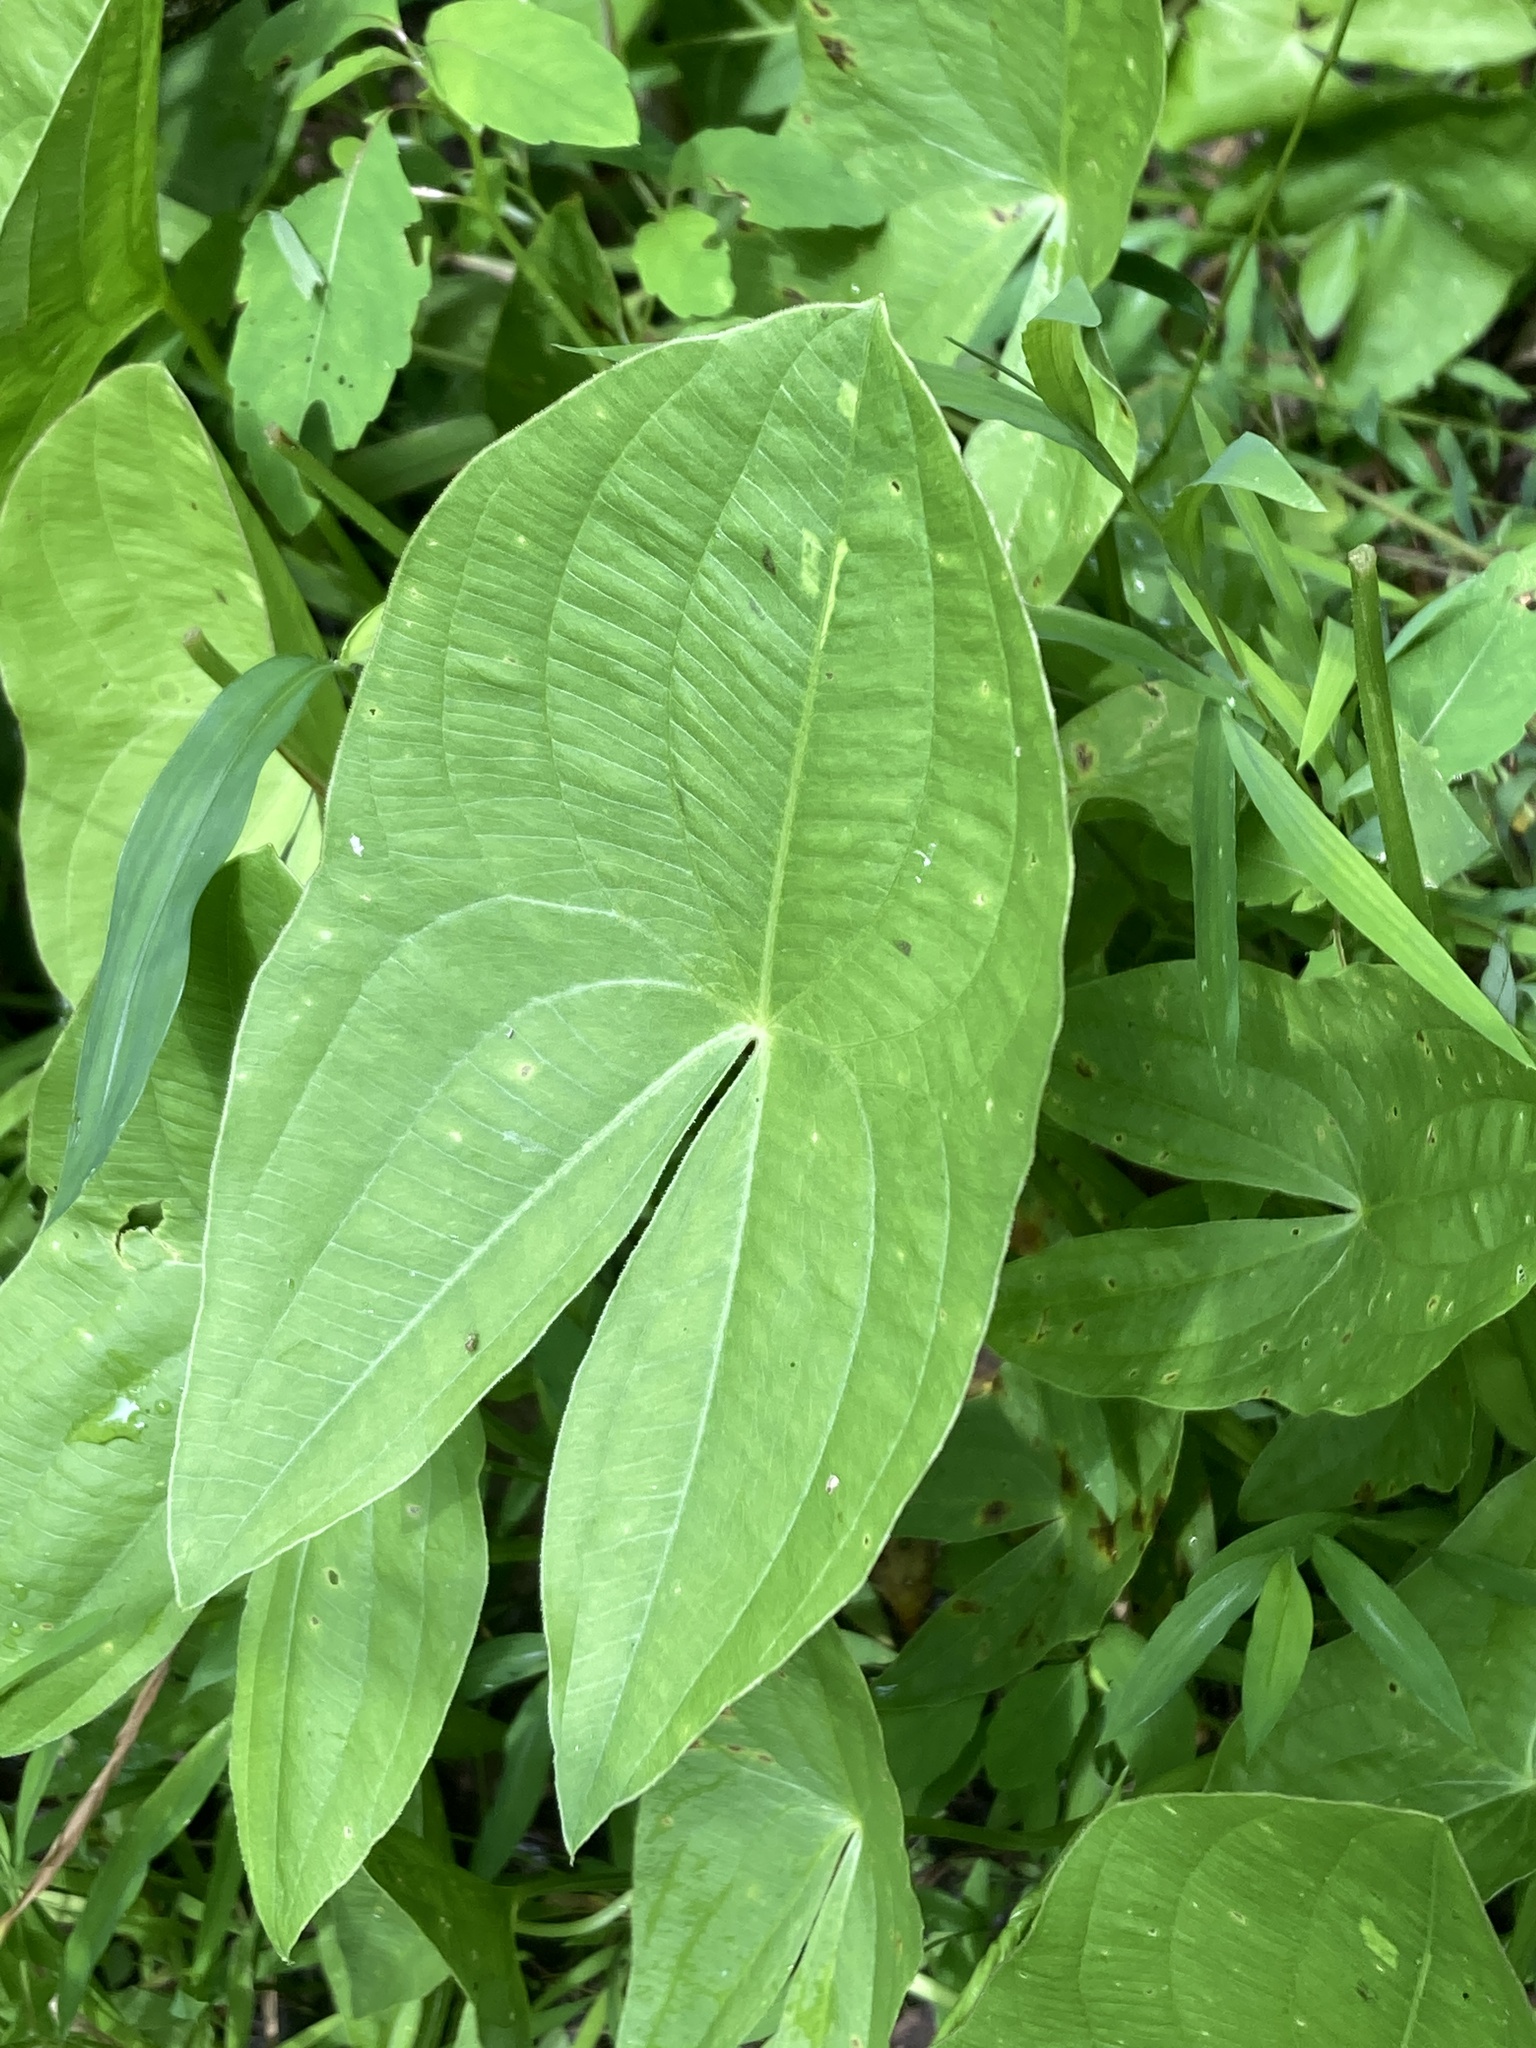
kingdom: Plantae
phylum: Tracheophyta
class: Liliopsida
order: Alismatales
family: Alismataceae
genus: Sagittaria
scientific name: Sagittaria
